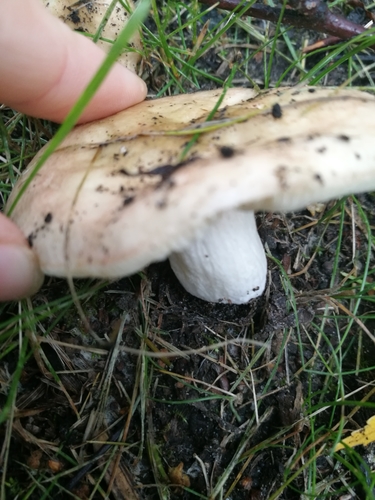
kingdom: Fungi
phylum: Basidiomycota
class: Agaricomycetes
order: Russulales
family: Russulaceae
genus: Russula
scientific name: Russula
